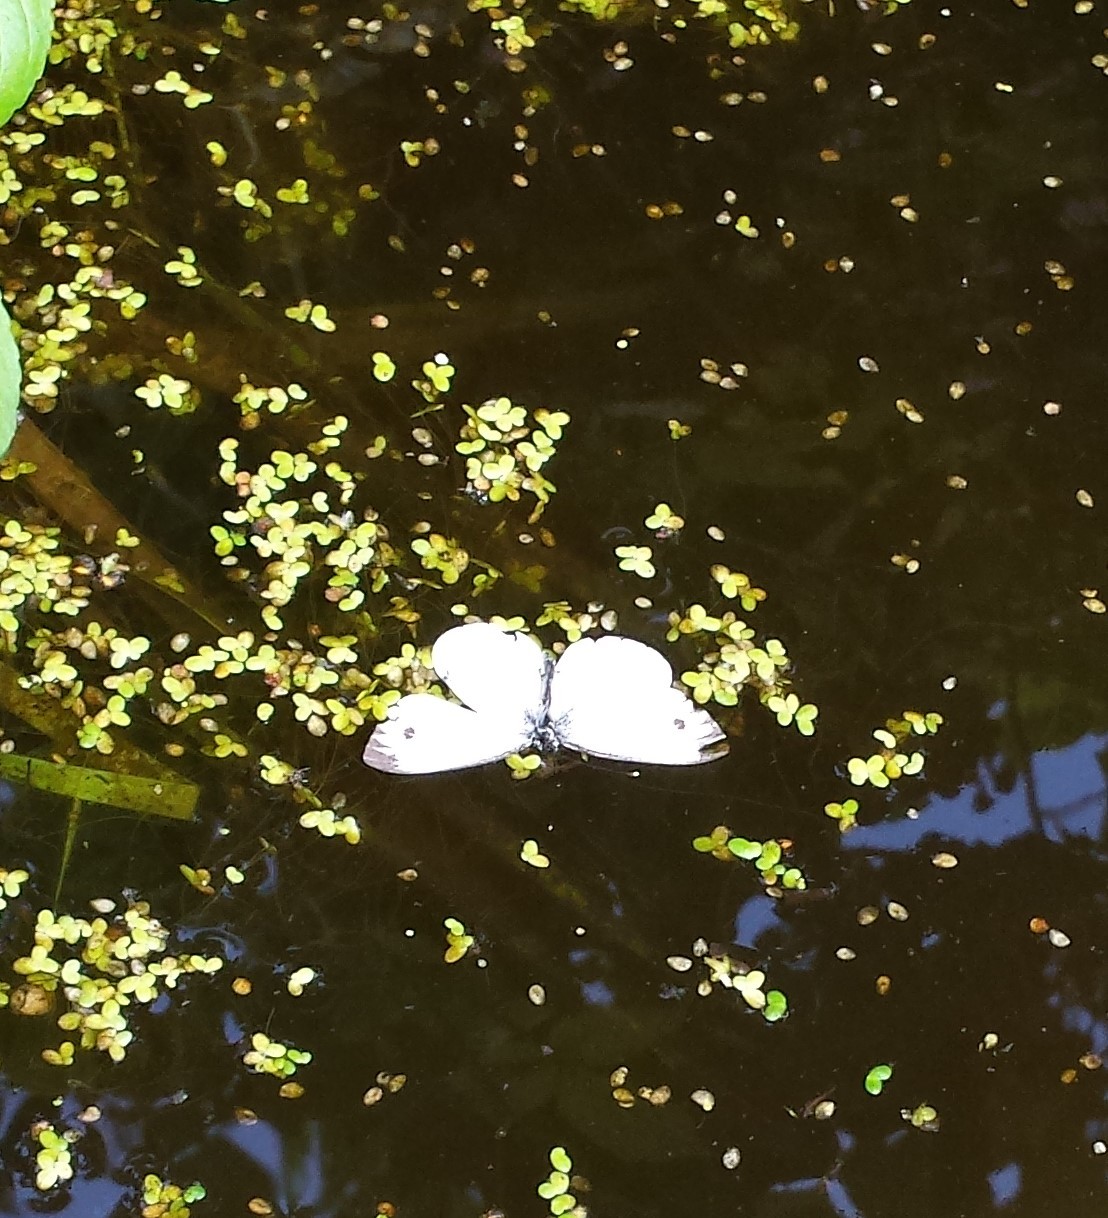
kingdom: Animalia
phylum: Arthropoda
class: Insecta
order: Lepidoptera
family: Pieridae
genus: Pieris
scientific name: Pieris napi
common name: Green-veined white
